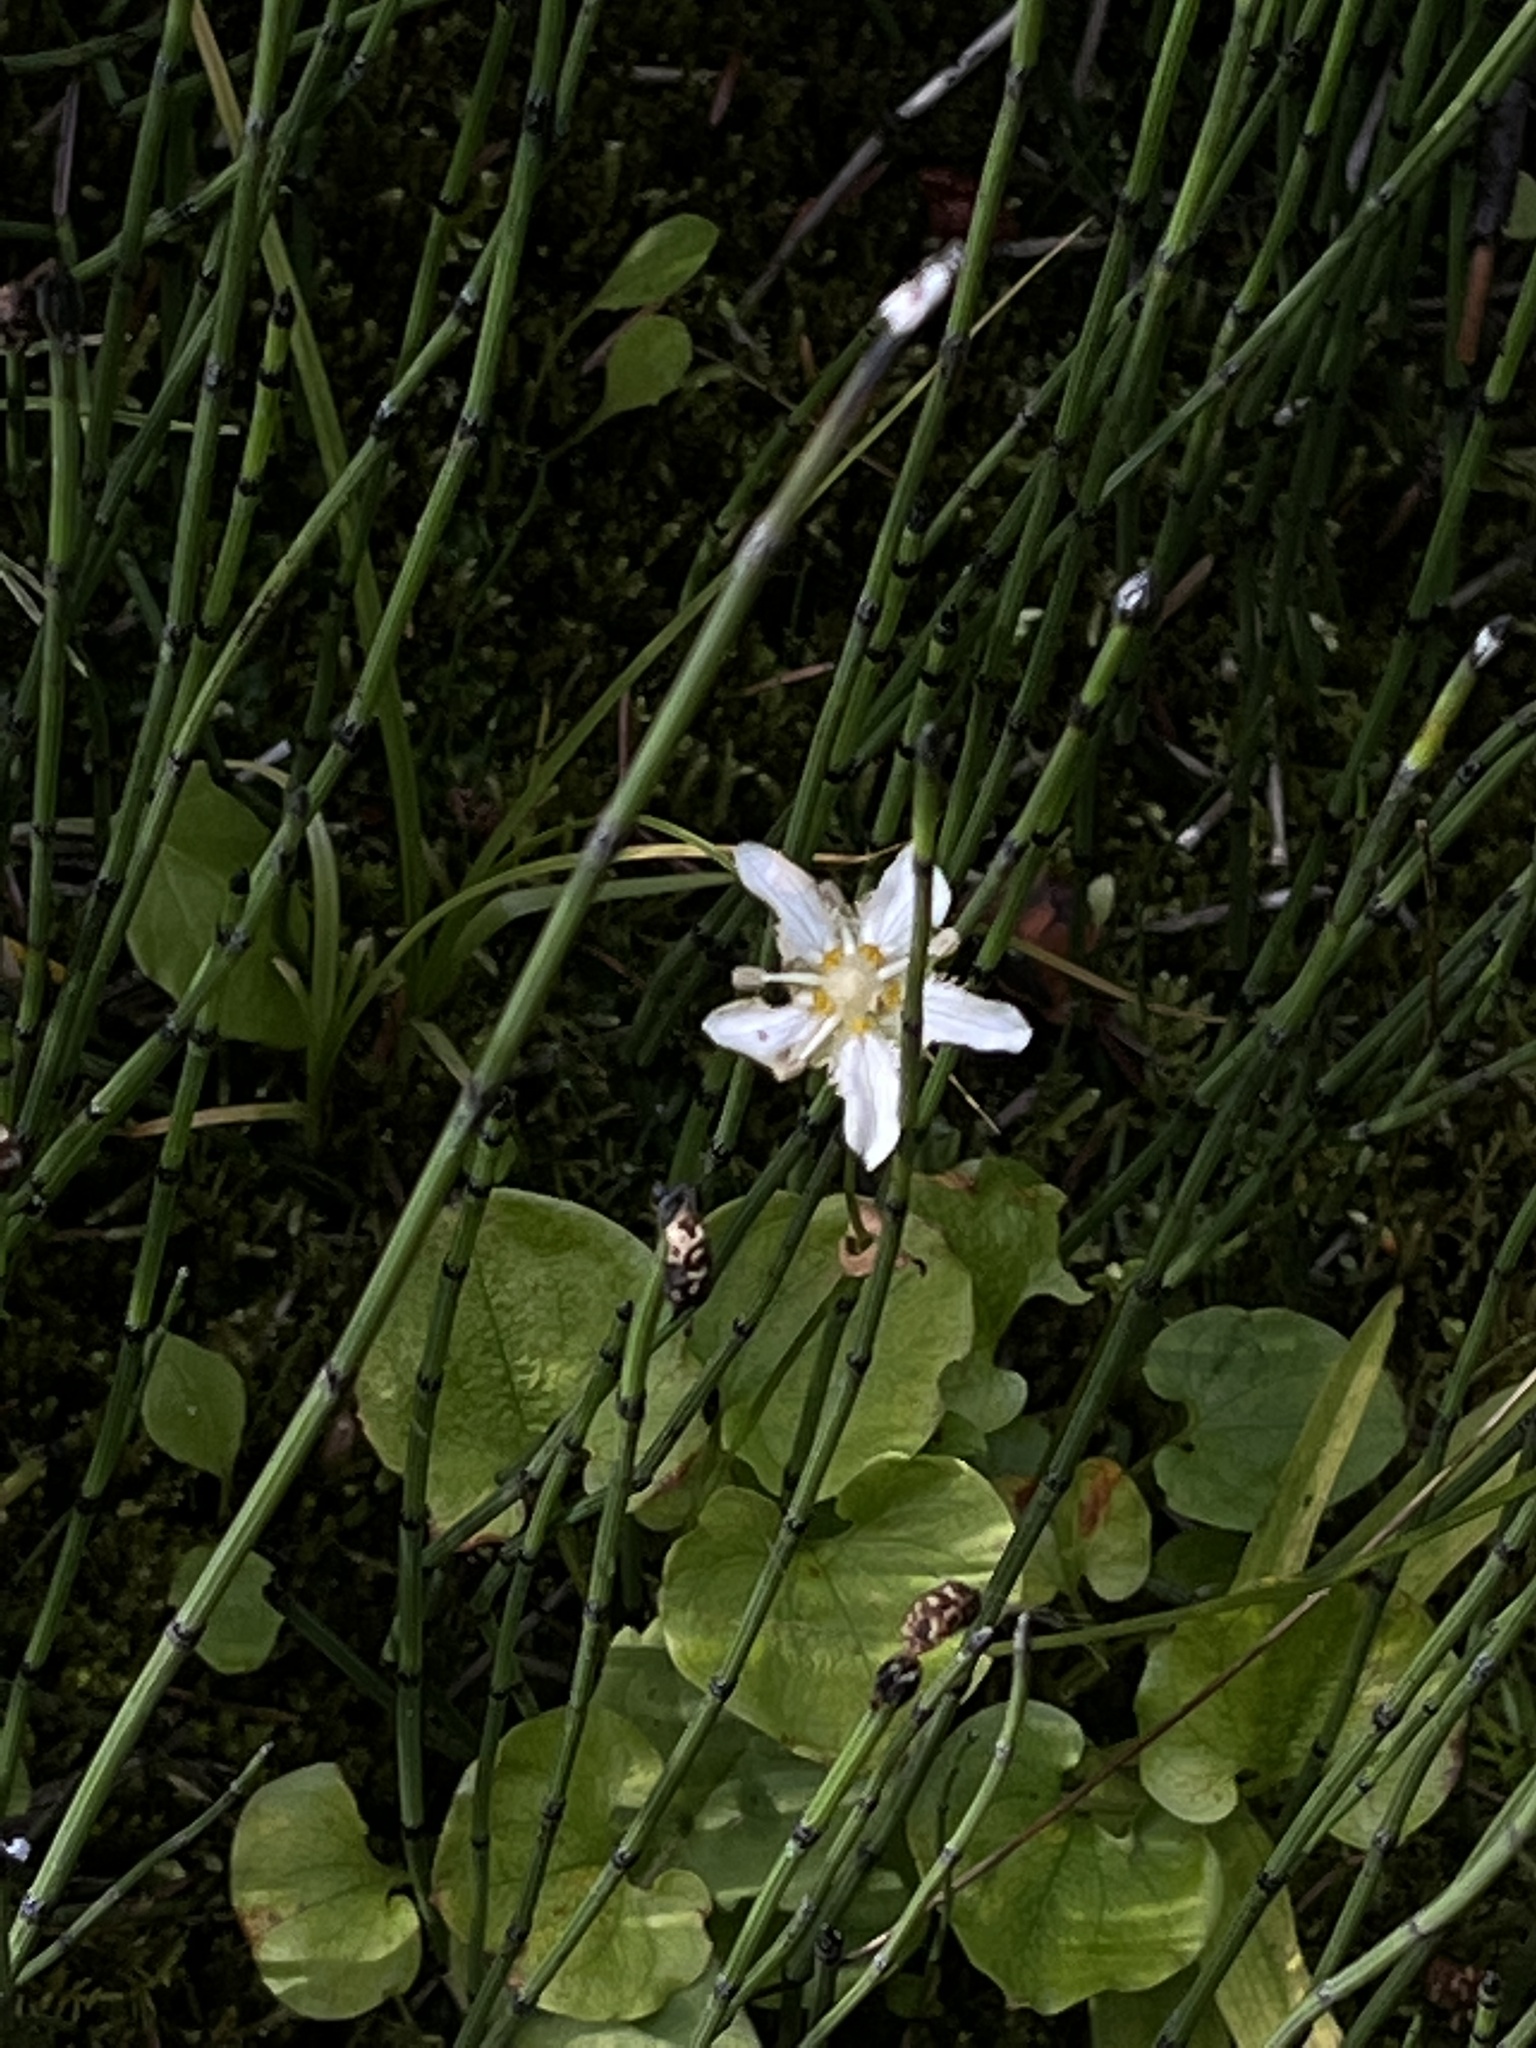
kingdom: Plantae
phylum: Tracheophyta
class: Magnoliopsida
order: Celastrales
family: Parnassiaceae
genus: Parnassia
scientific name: Parnassia fimbriata
